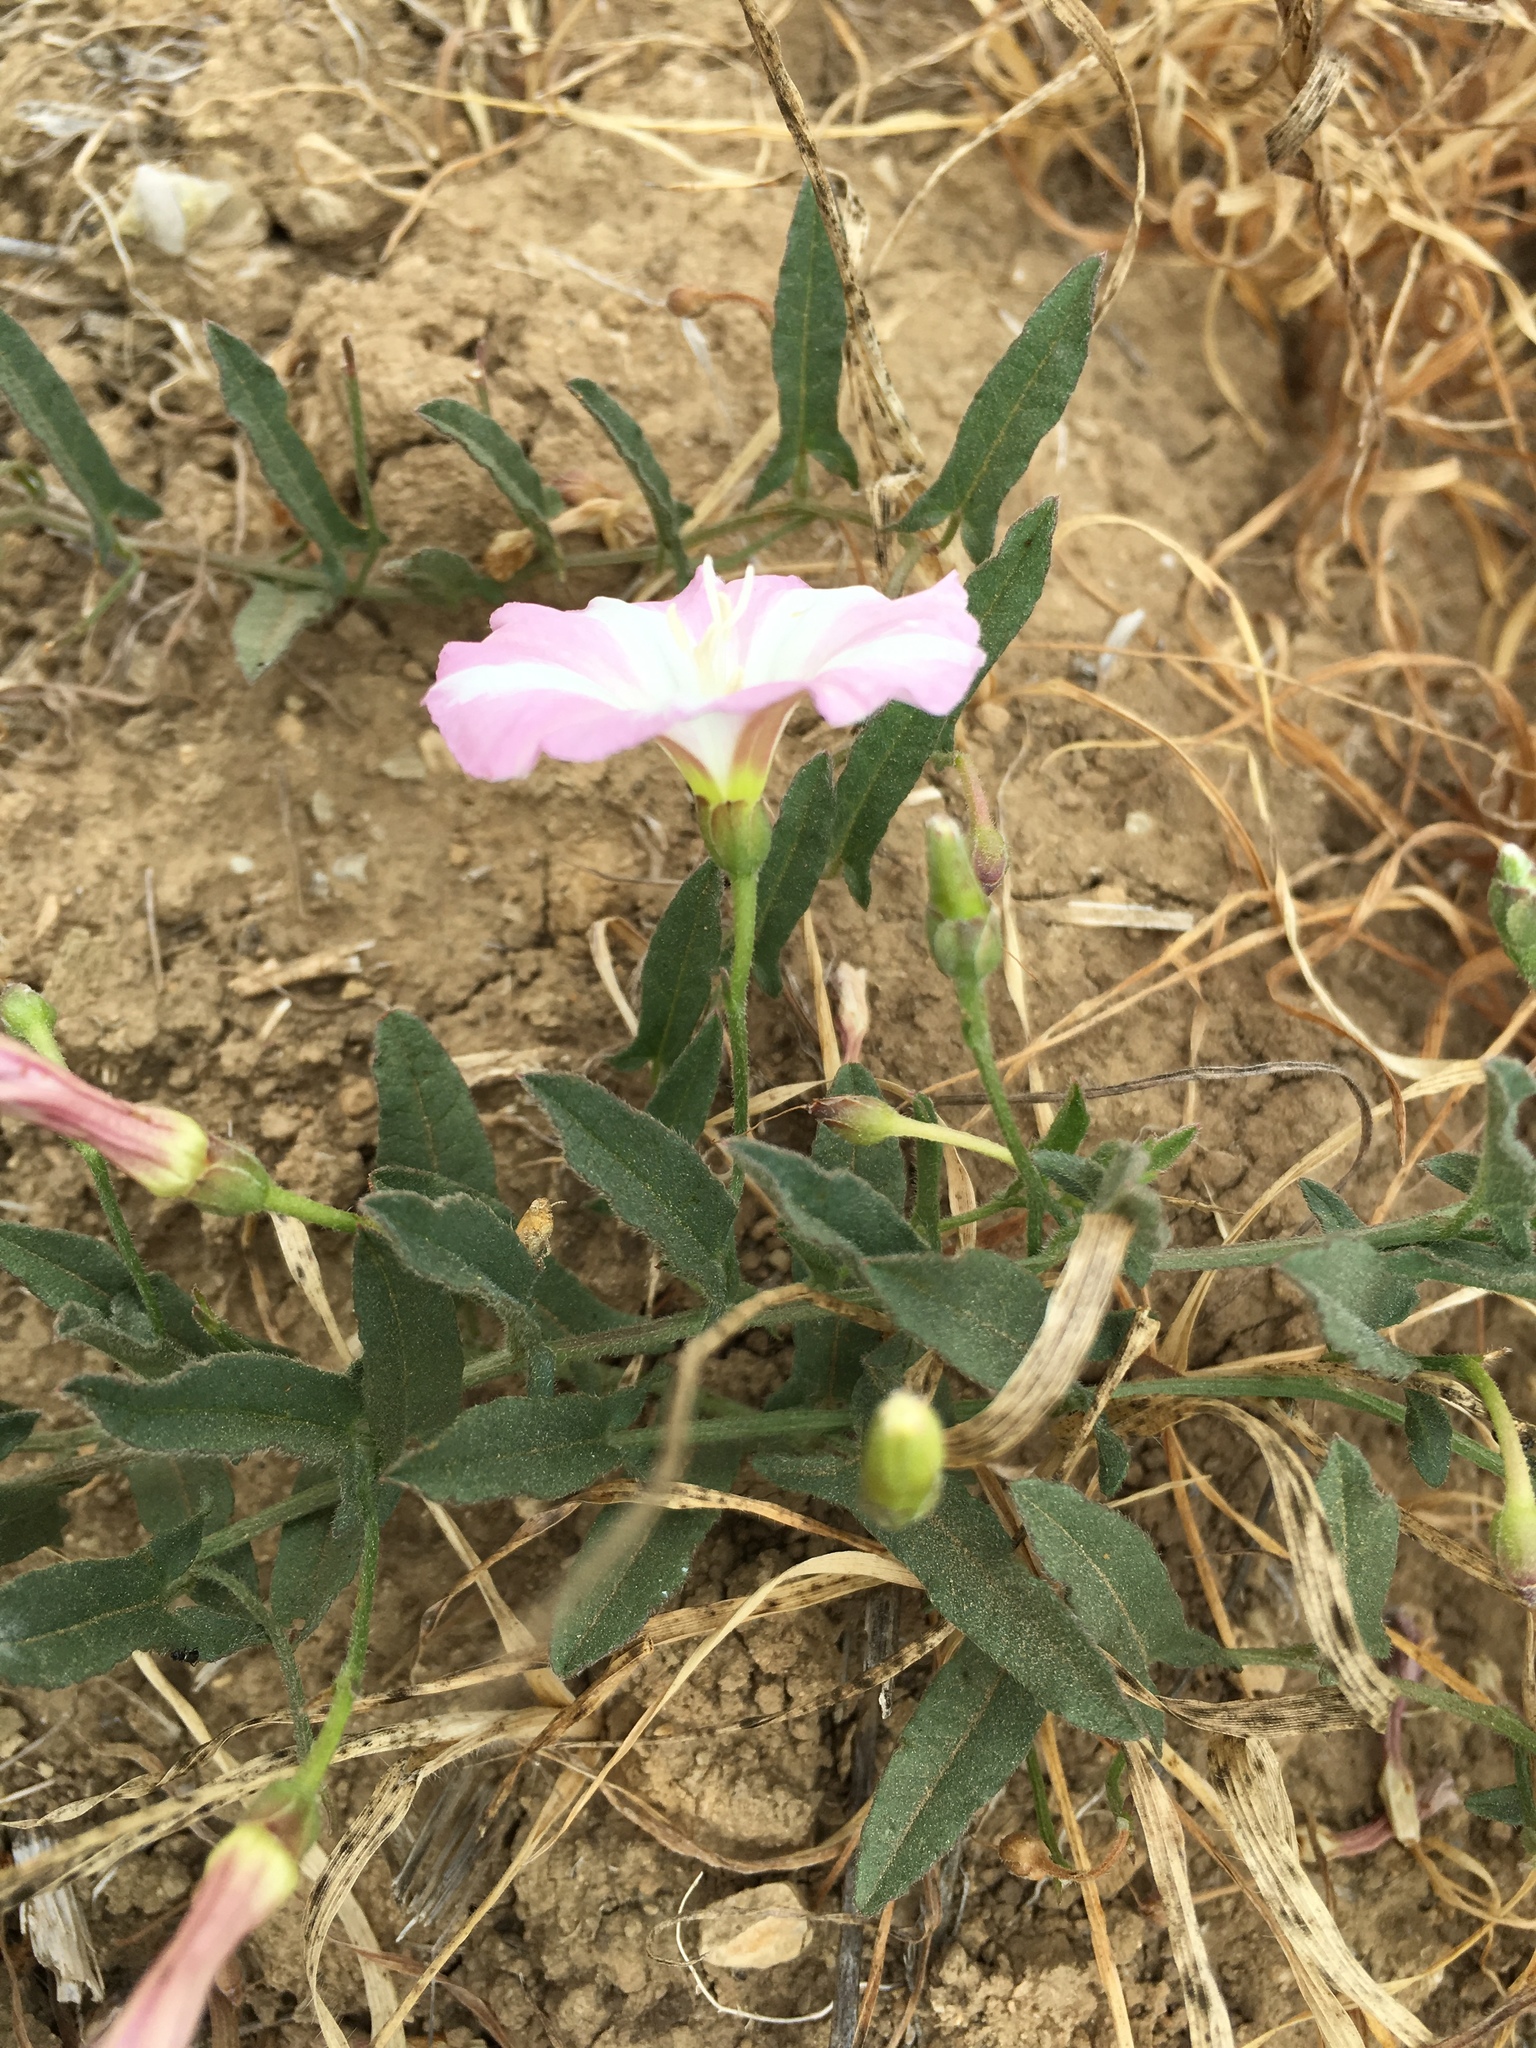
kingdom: Plantae
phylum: Tracheophyta
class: Magnoliopsida
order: Solanales
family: Convolvulaceae
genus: Convolvulus
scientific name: Convolvulus arvensis
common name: Field bindweed
